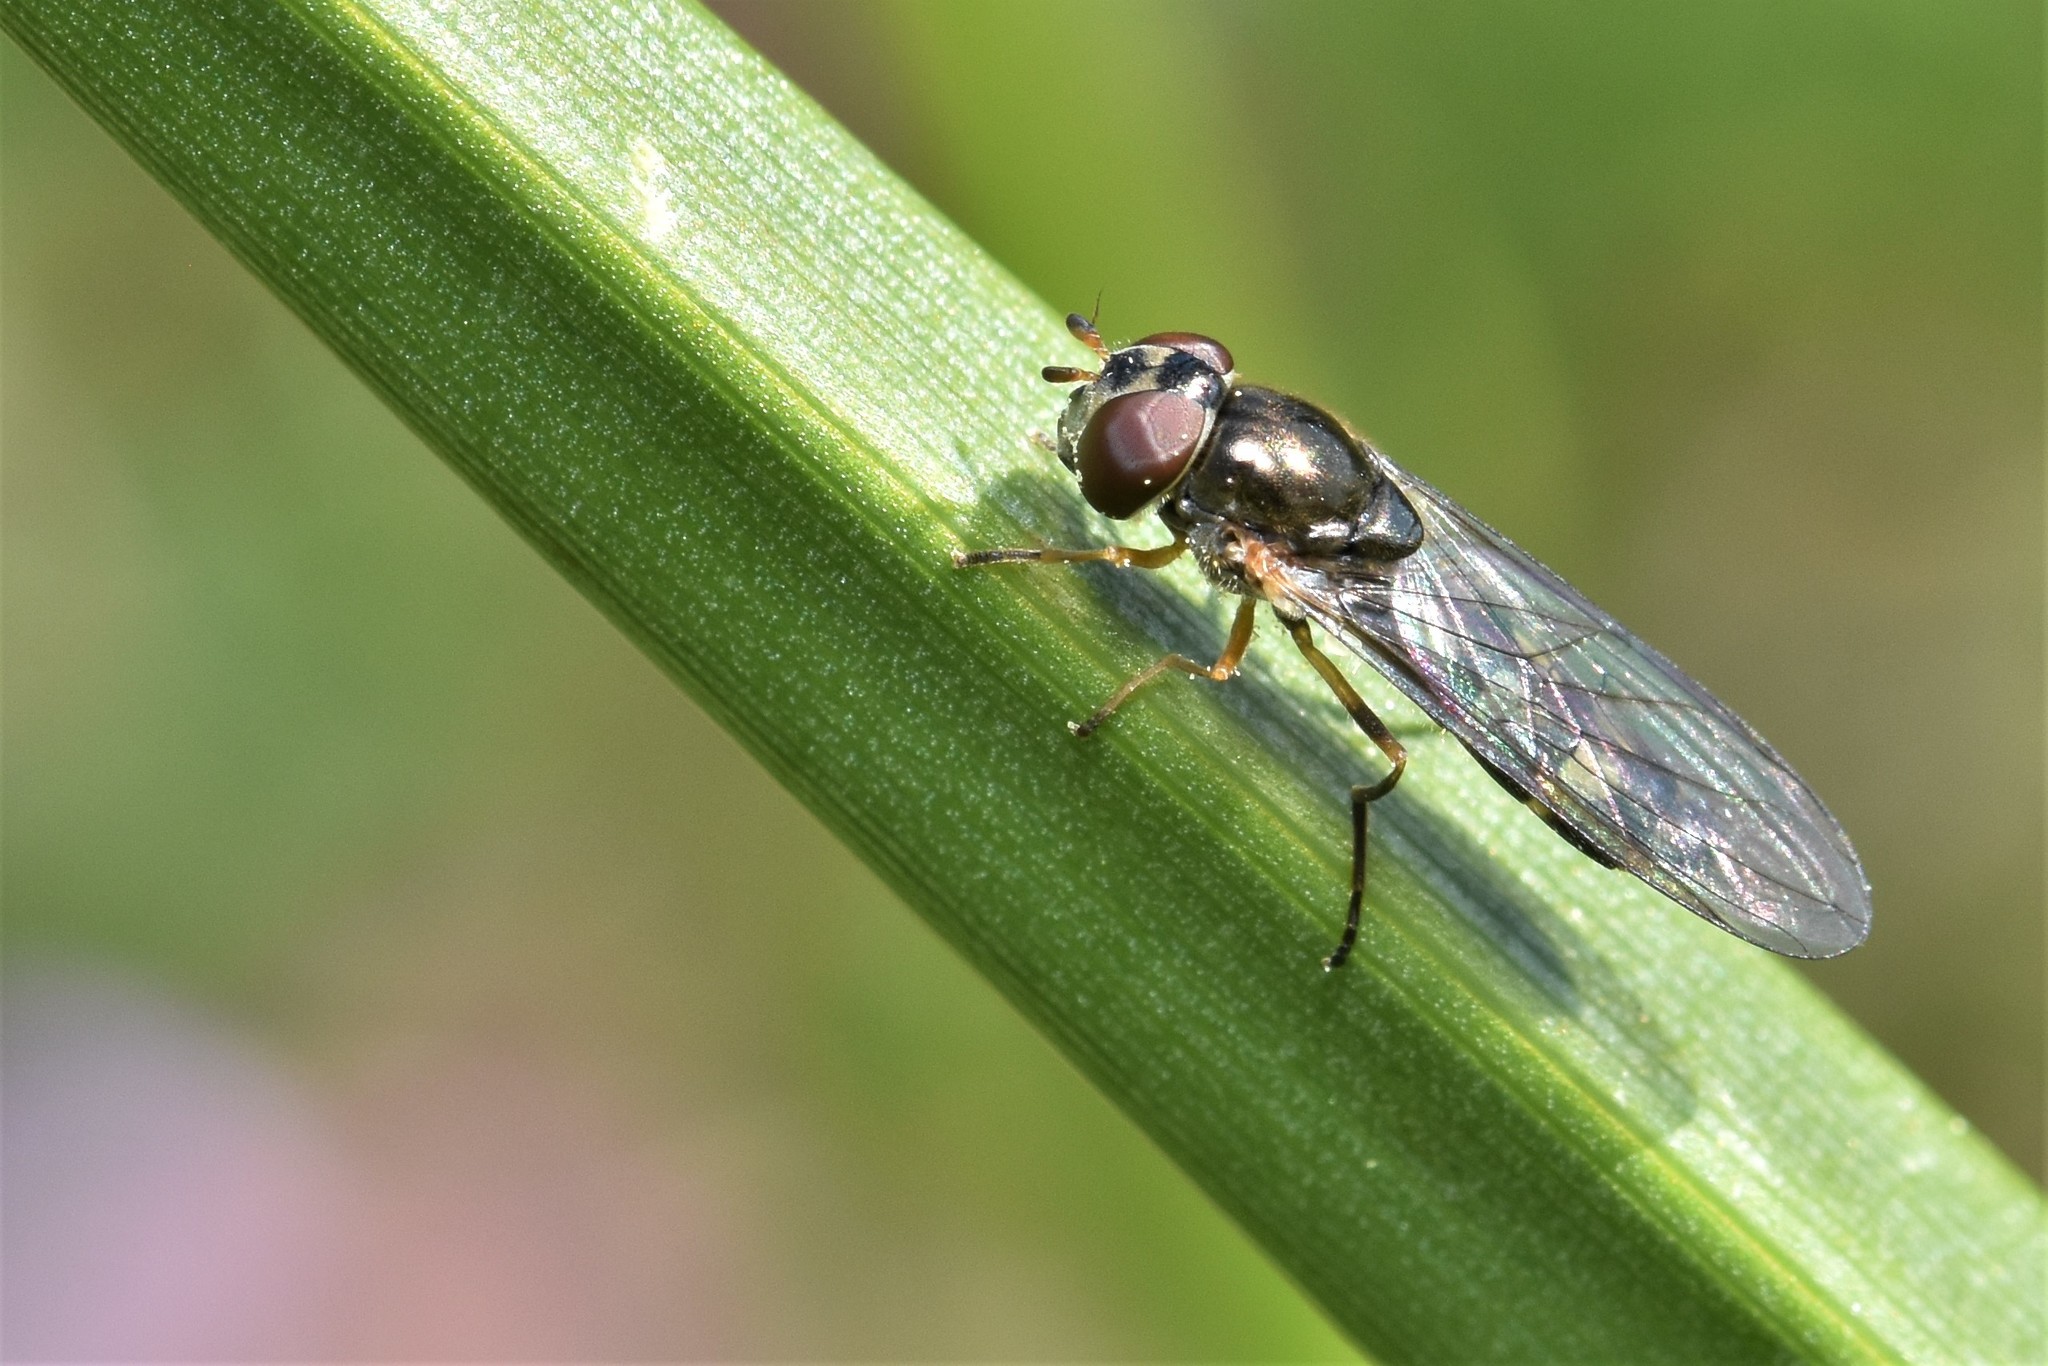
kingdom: Animalia
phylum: Arthropoda
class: Insecta
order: Diptera
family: Syrphidae
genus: Melanostoma
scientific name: Melanostoma mellina
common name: Hover fly
